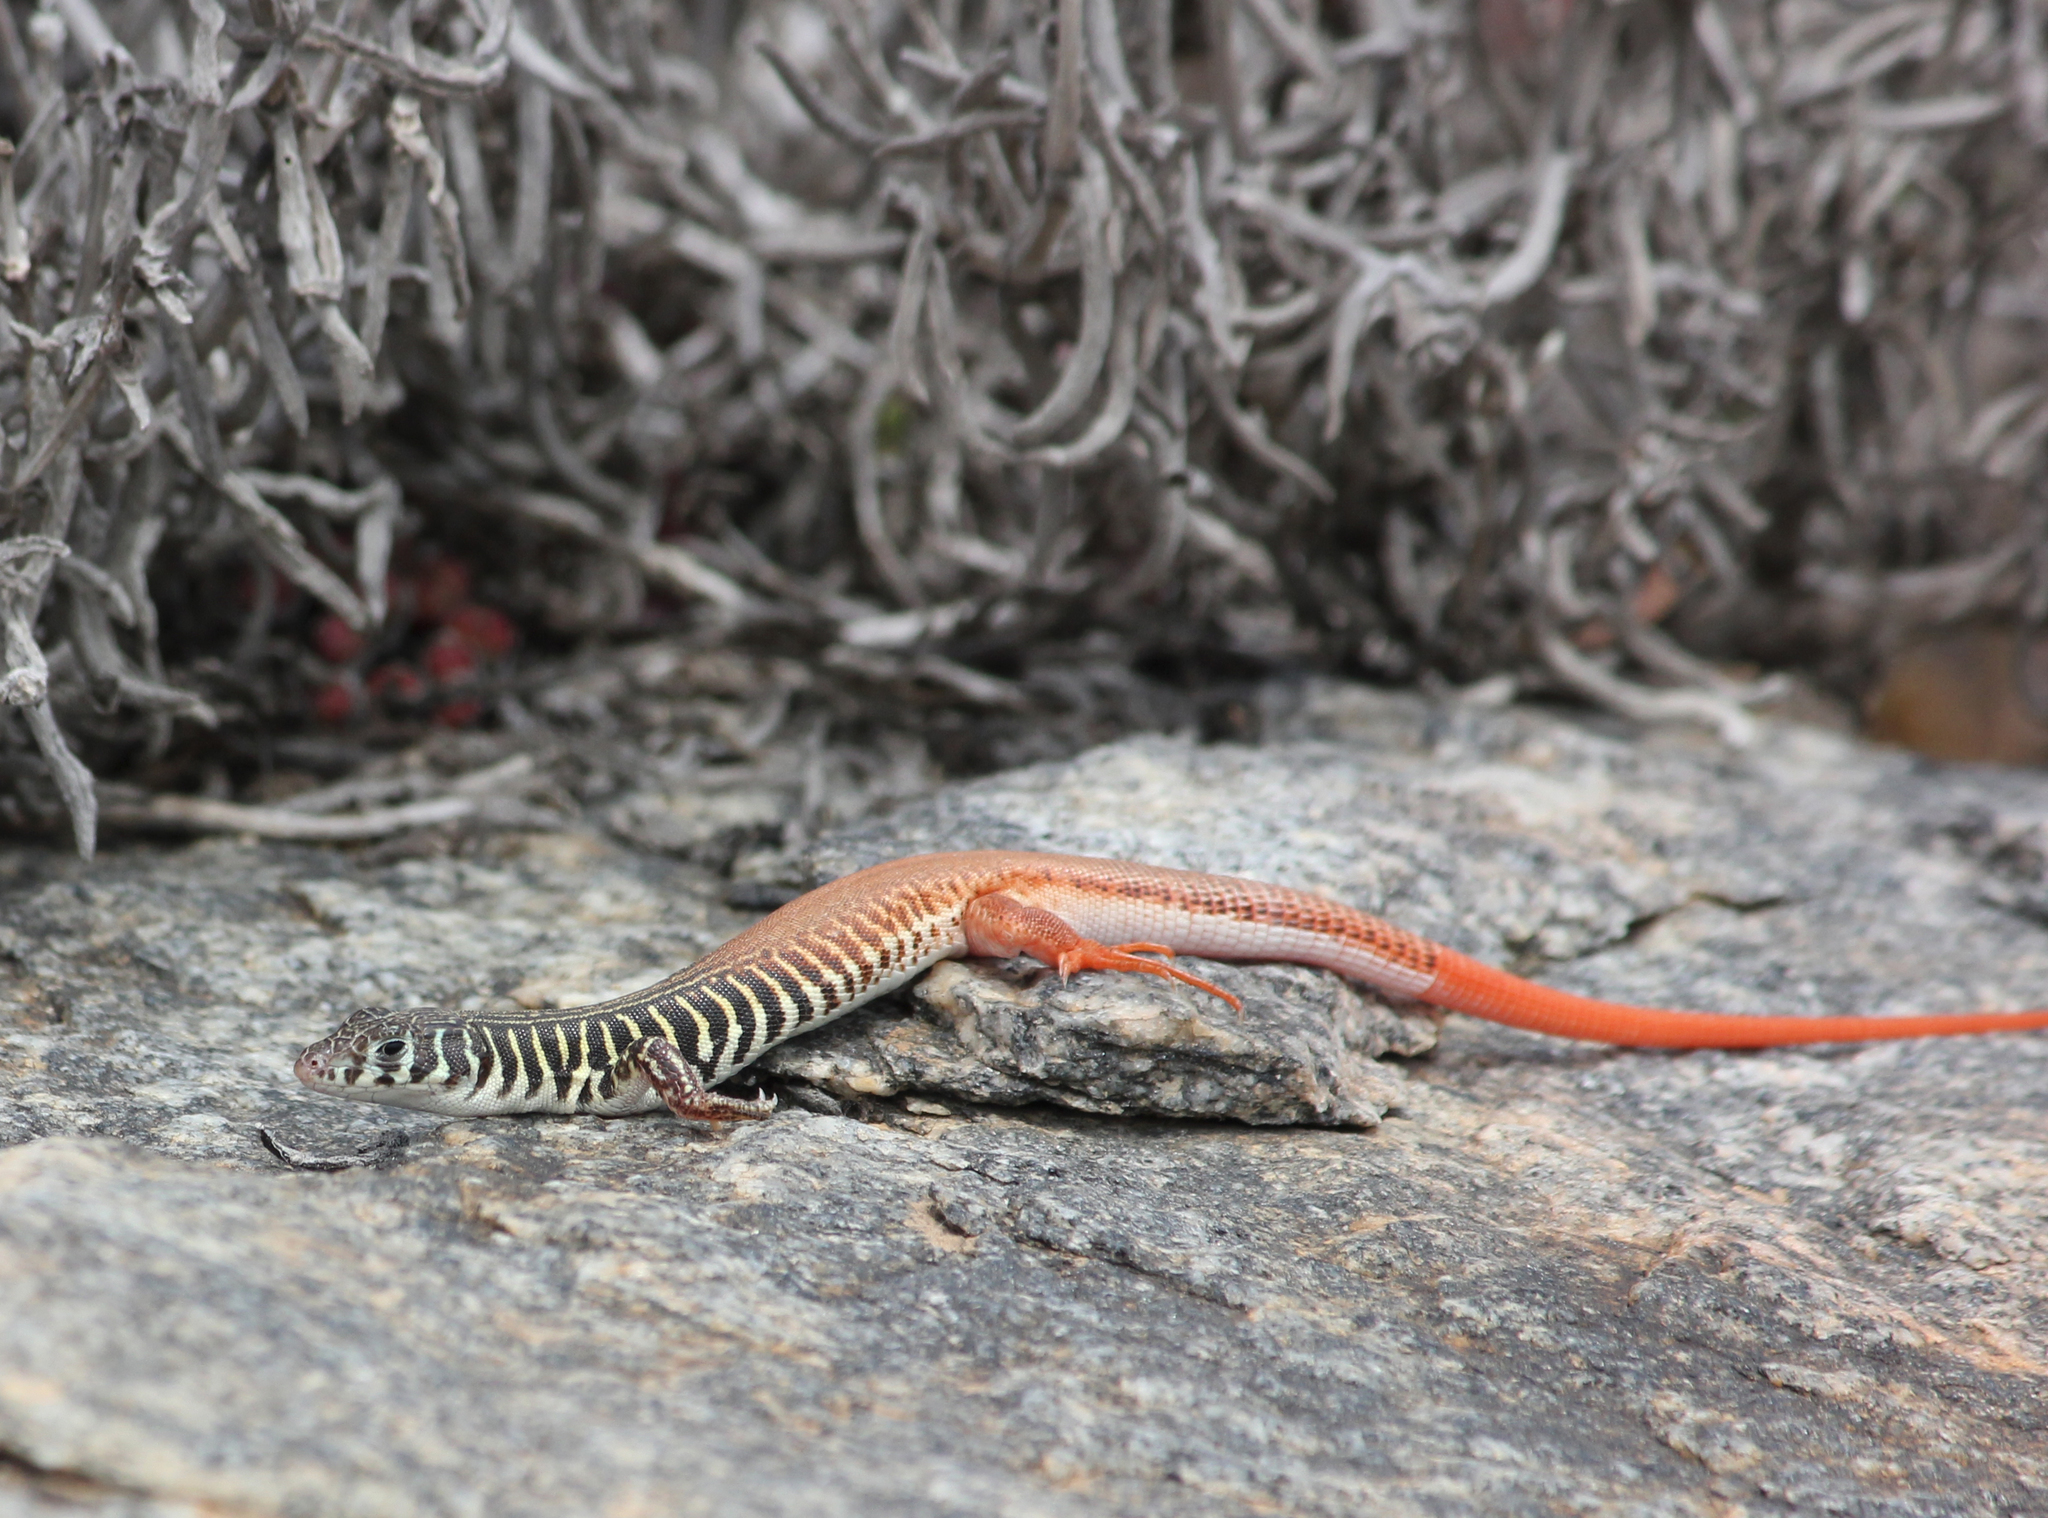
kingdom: Animalia
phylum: Chordata
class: Squamata
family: Lacertidae
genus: Nucras
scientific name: Nucras tessellata
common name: Western sandveld lizard
